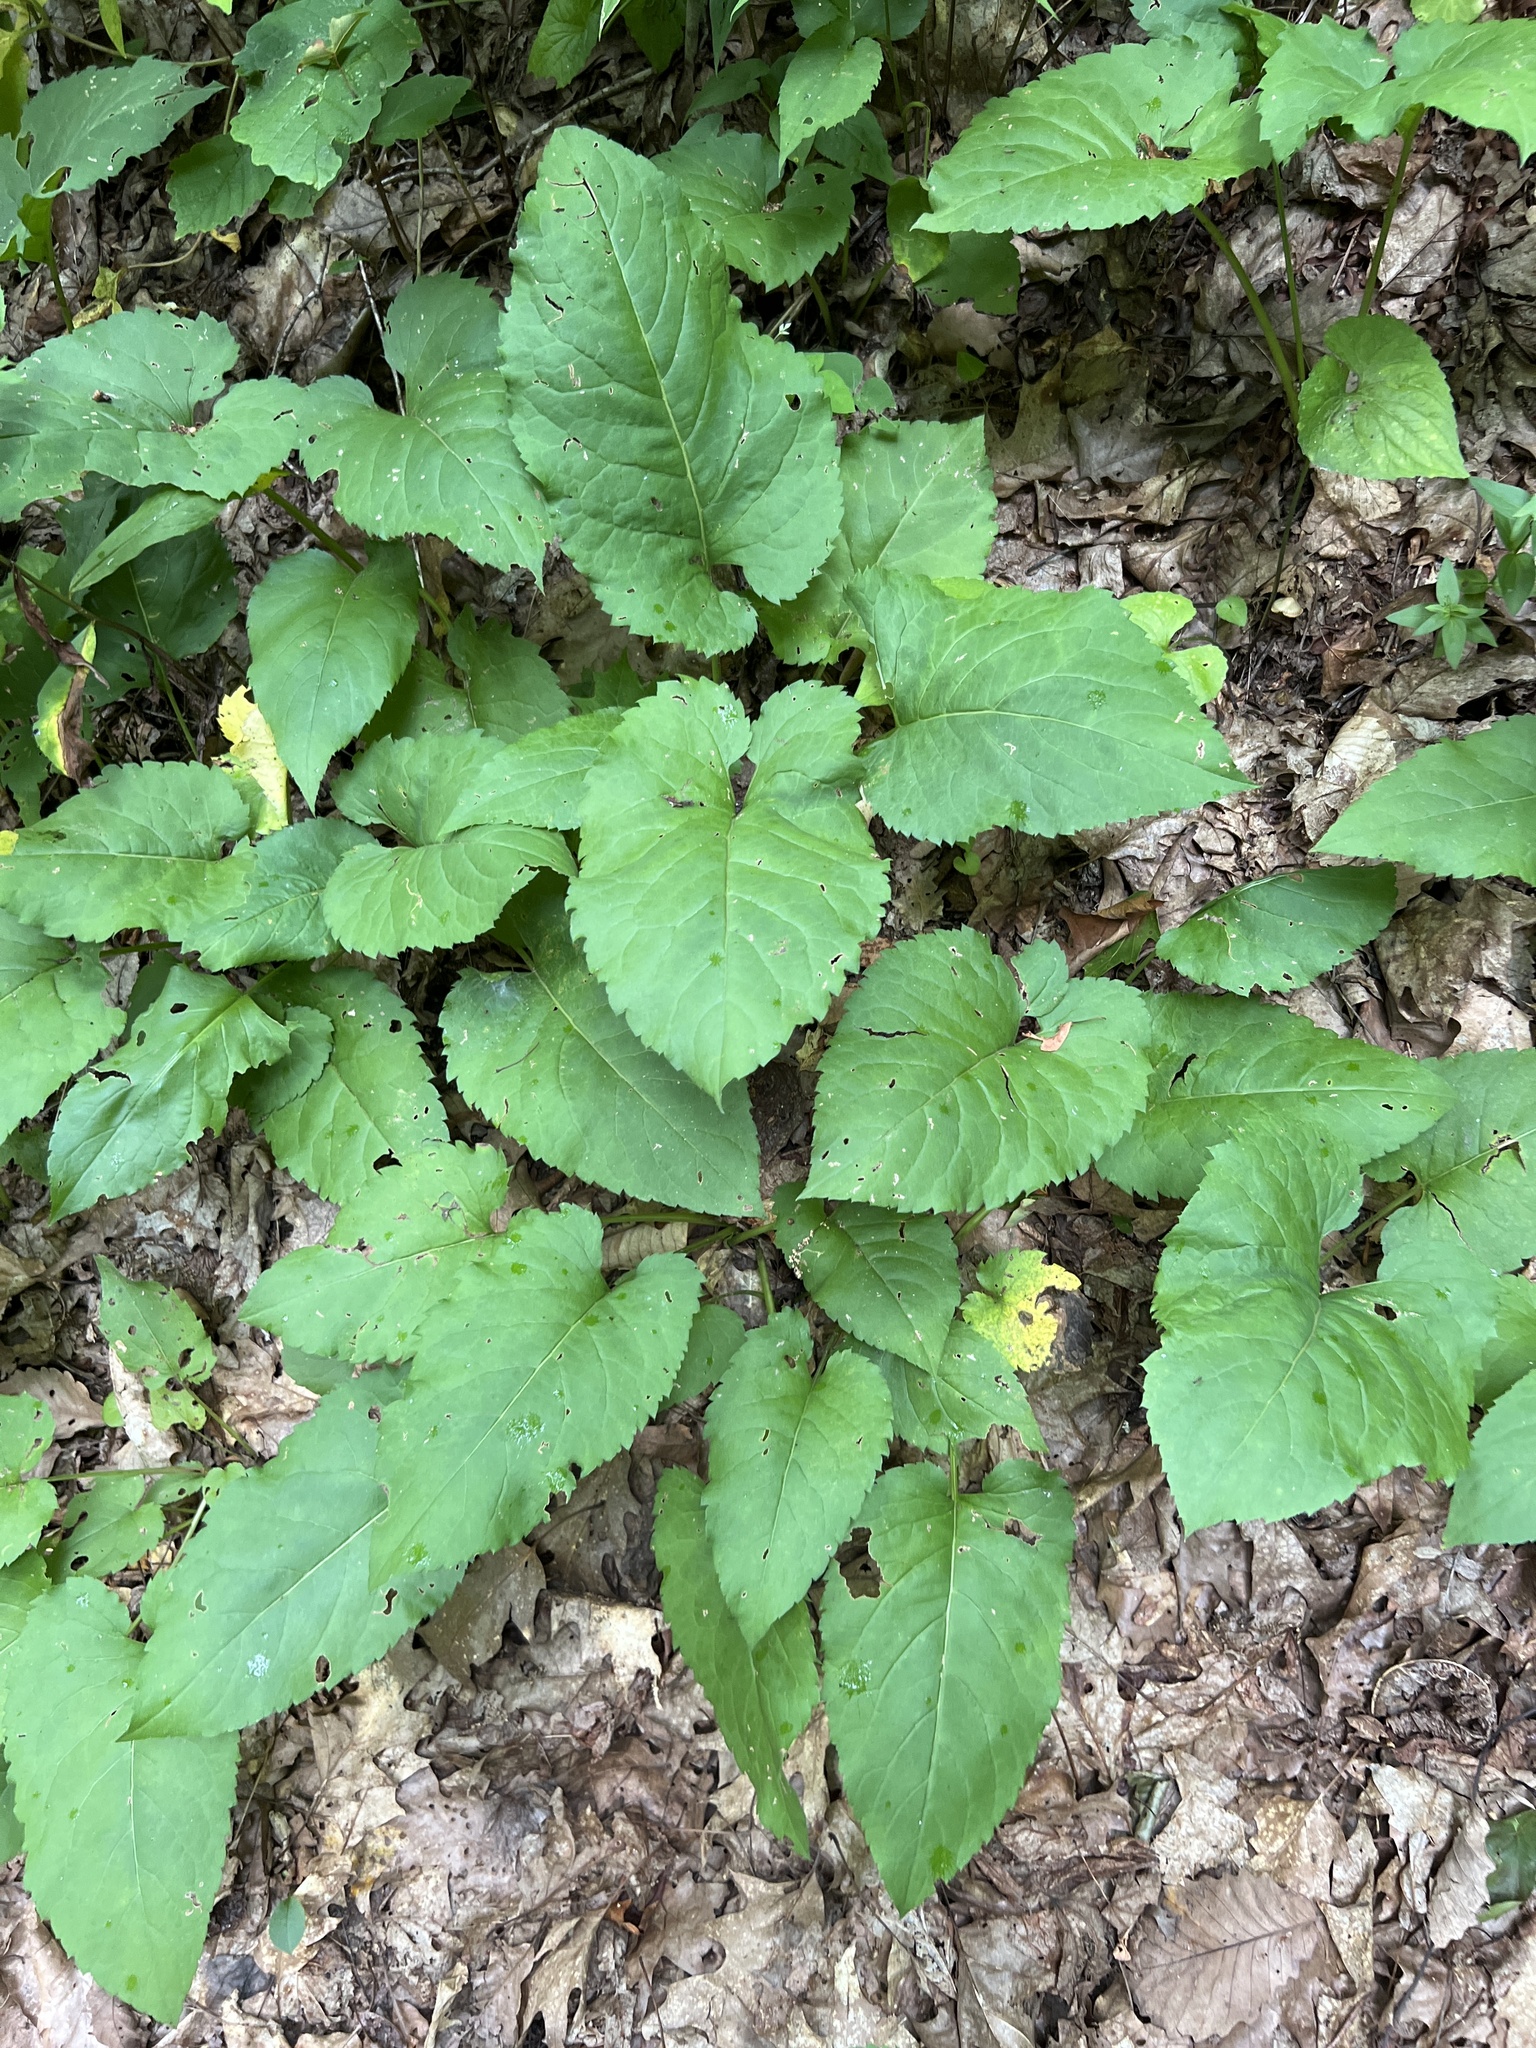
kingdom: Plantae
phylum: Tracheophyta
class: Magnoliopsida
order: Asterales
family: Asteraceae
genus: Eurybia
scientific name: Eurybia macrophylla
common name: Big-leaved aster
